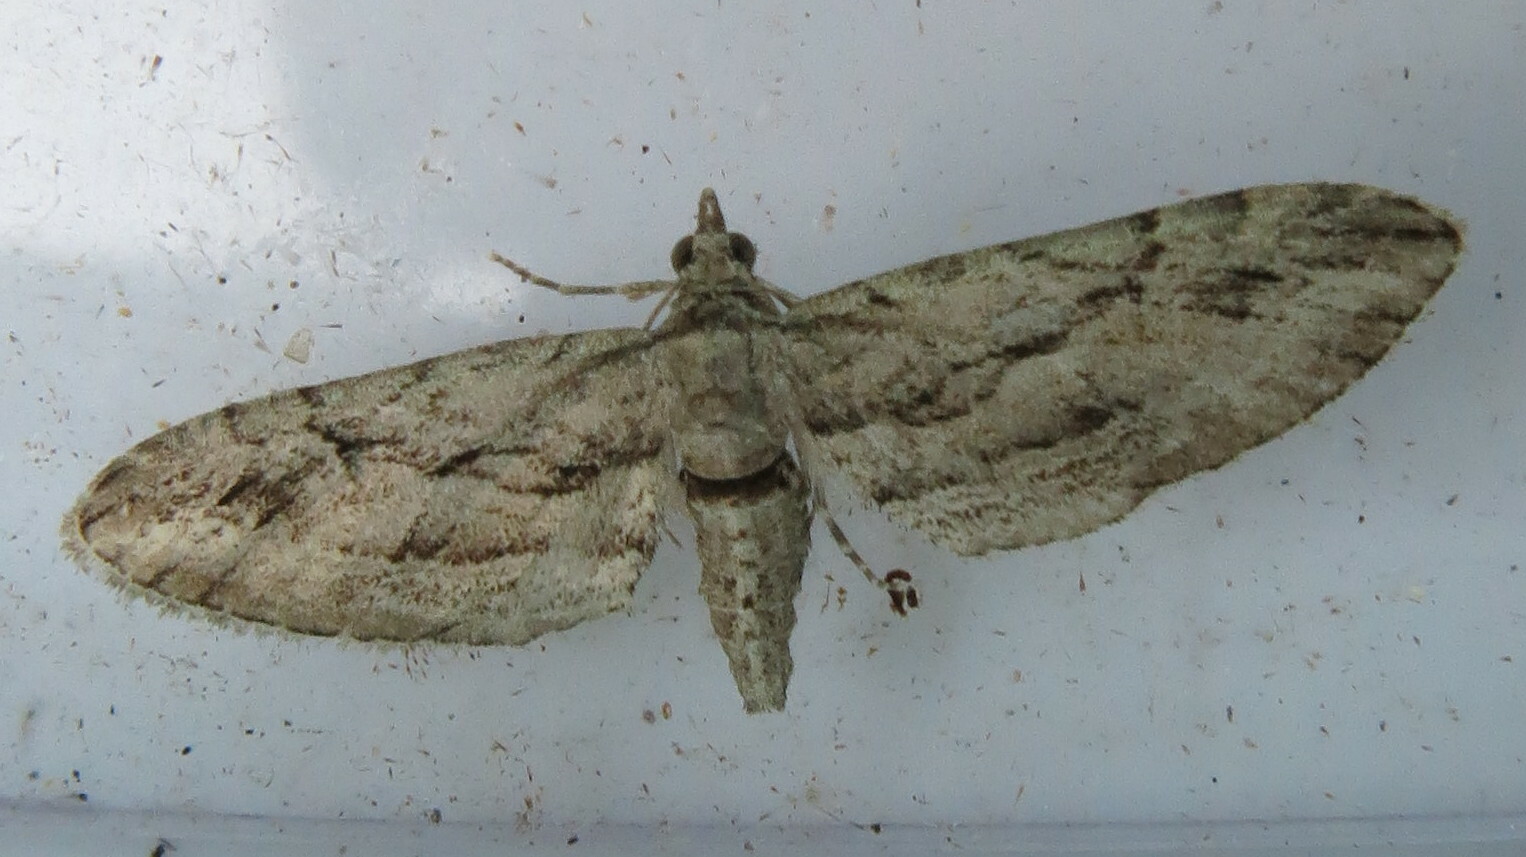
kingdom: Animalia
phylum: Arthropoda
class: Insecta
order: Lepidoptera
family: Geometridae
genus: Eupithecia
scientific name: Eupithecia phoeniceata
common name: Cypress pug
